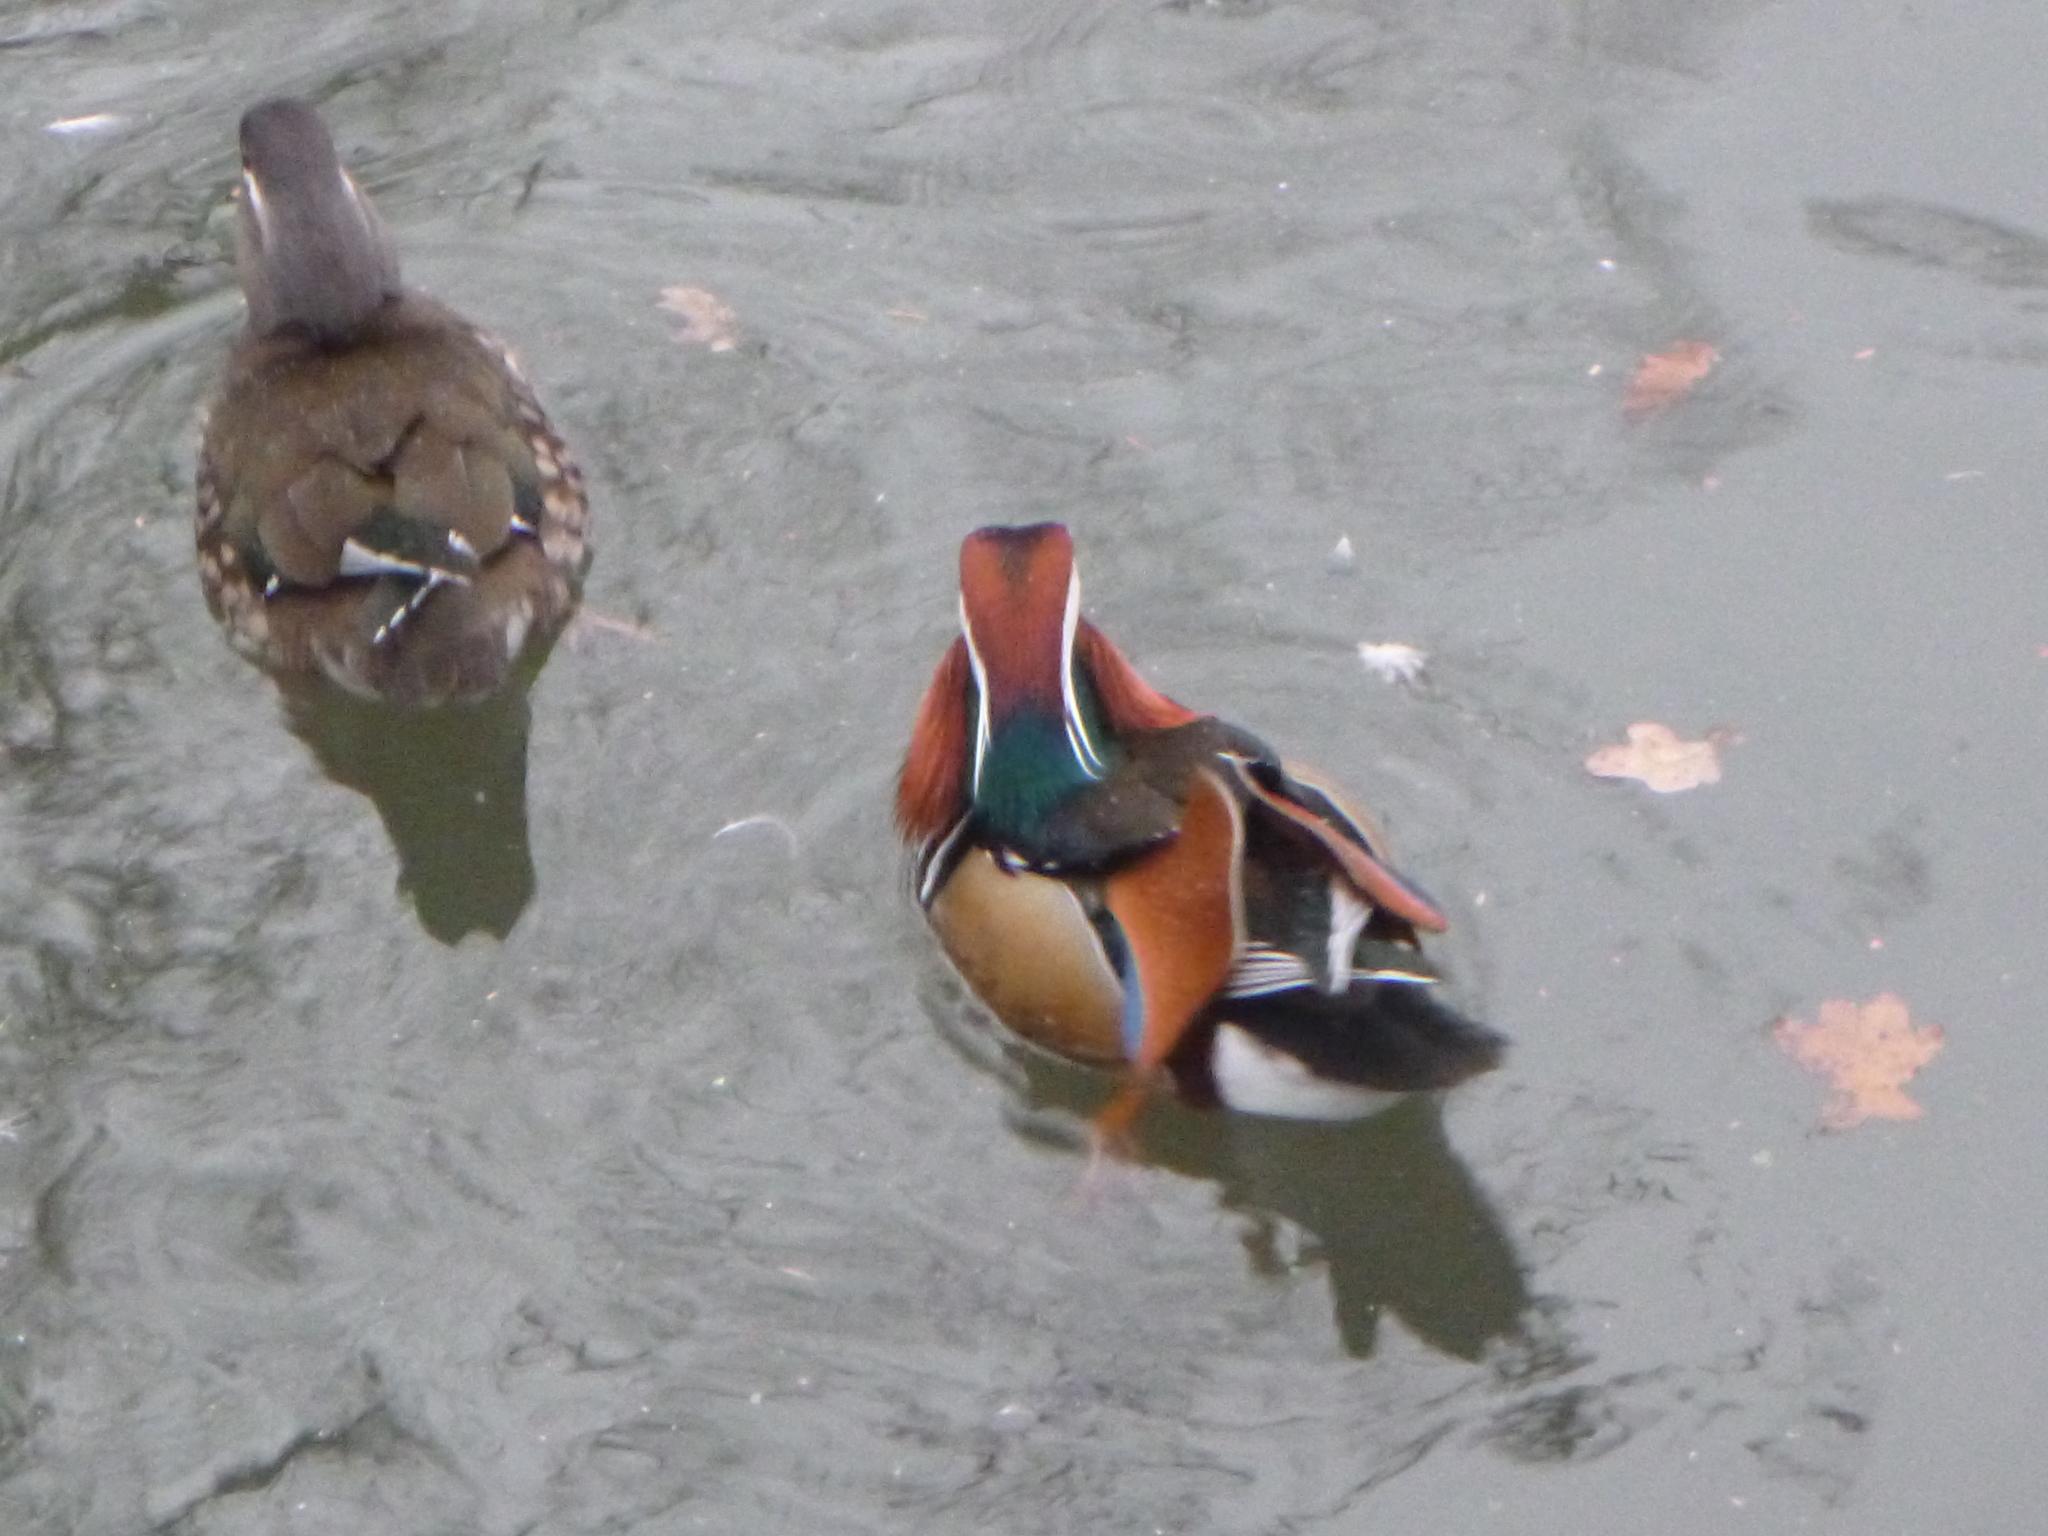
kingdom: Animalia
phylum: Chordata
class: Aves
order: Anseriformes
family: Anatidae
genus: Aix
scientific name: Aix galericulata
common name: Mandarin duck
